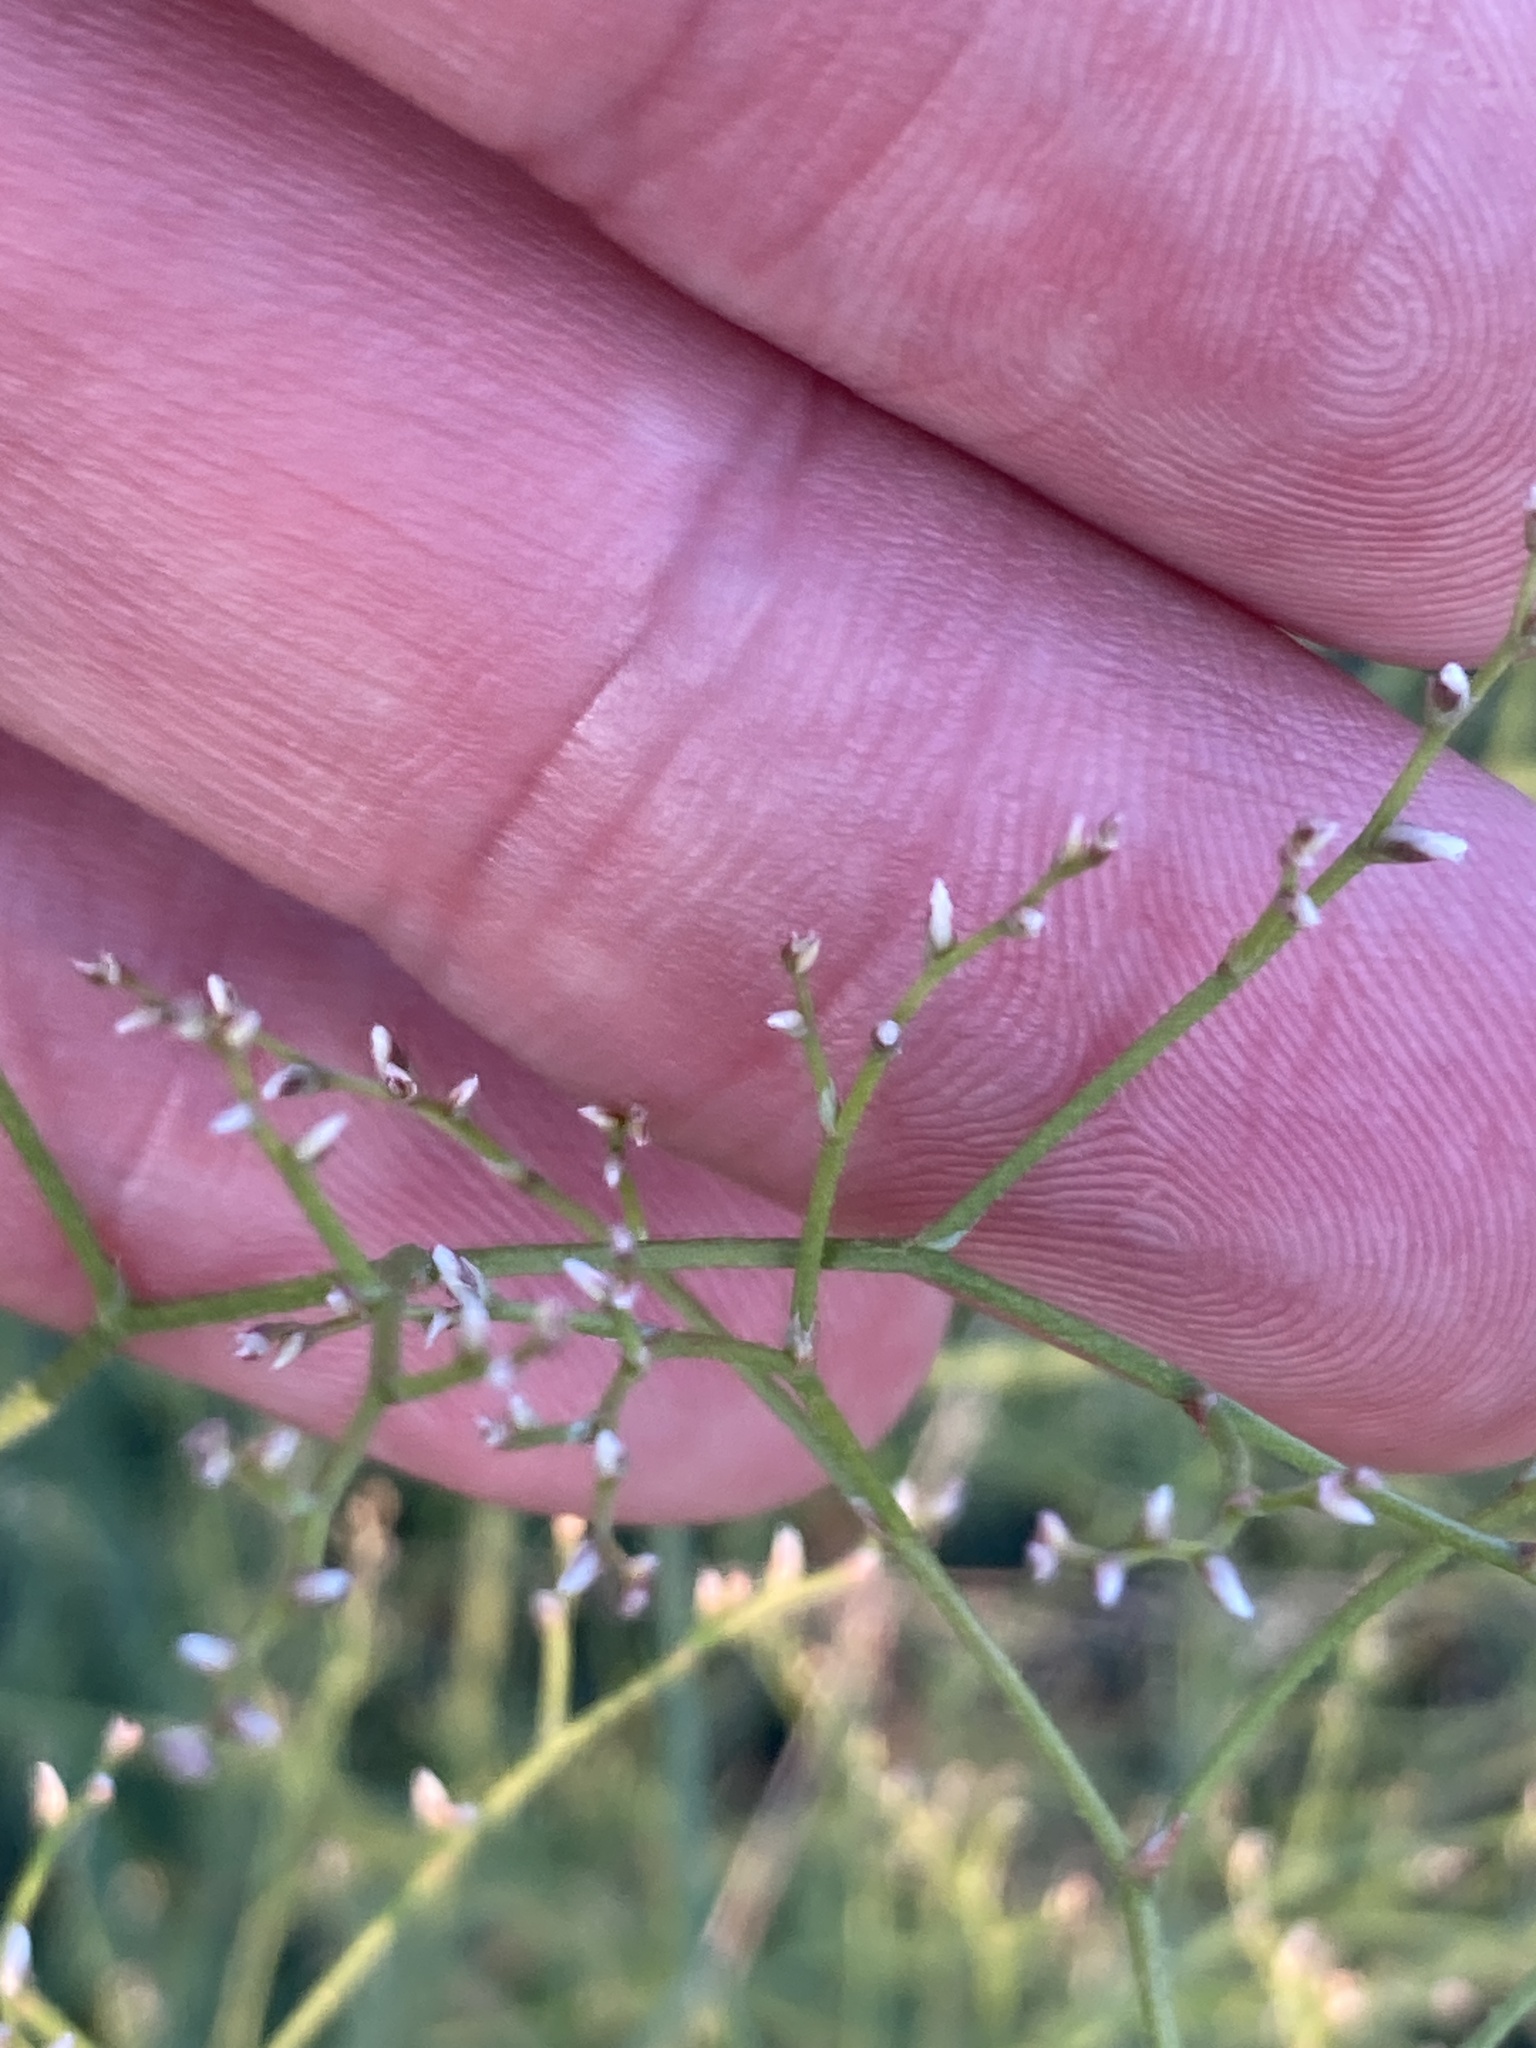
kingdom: Plantae
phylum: Tracheophyta
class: Magnoliopsida
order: Caryophyllales
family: Plumbaginaceae
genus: Limonium
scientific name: Limonium platyphyllum
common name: Florist's sea lavender
